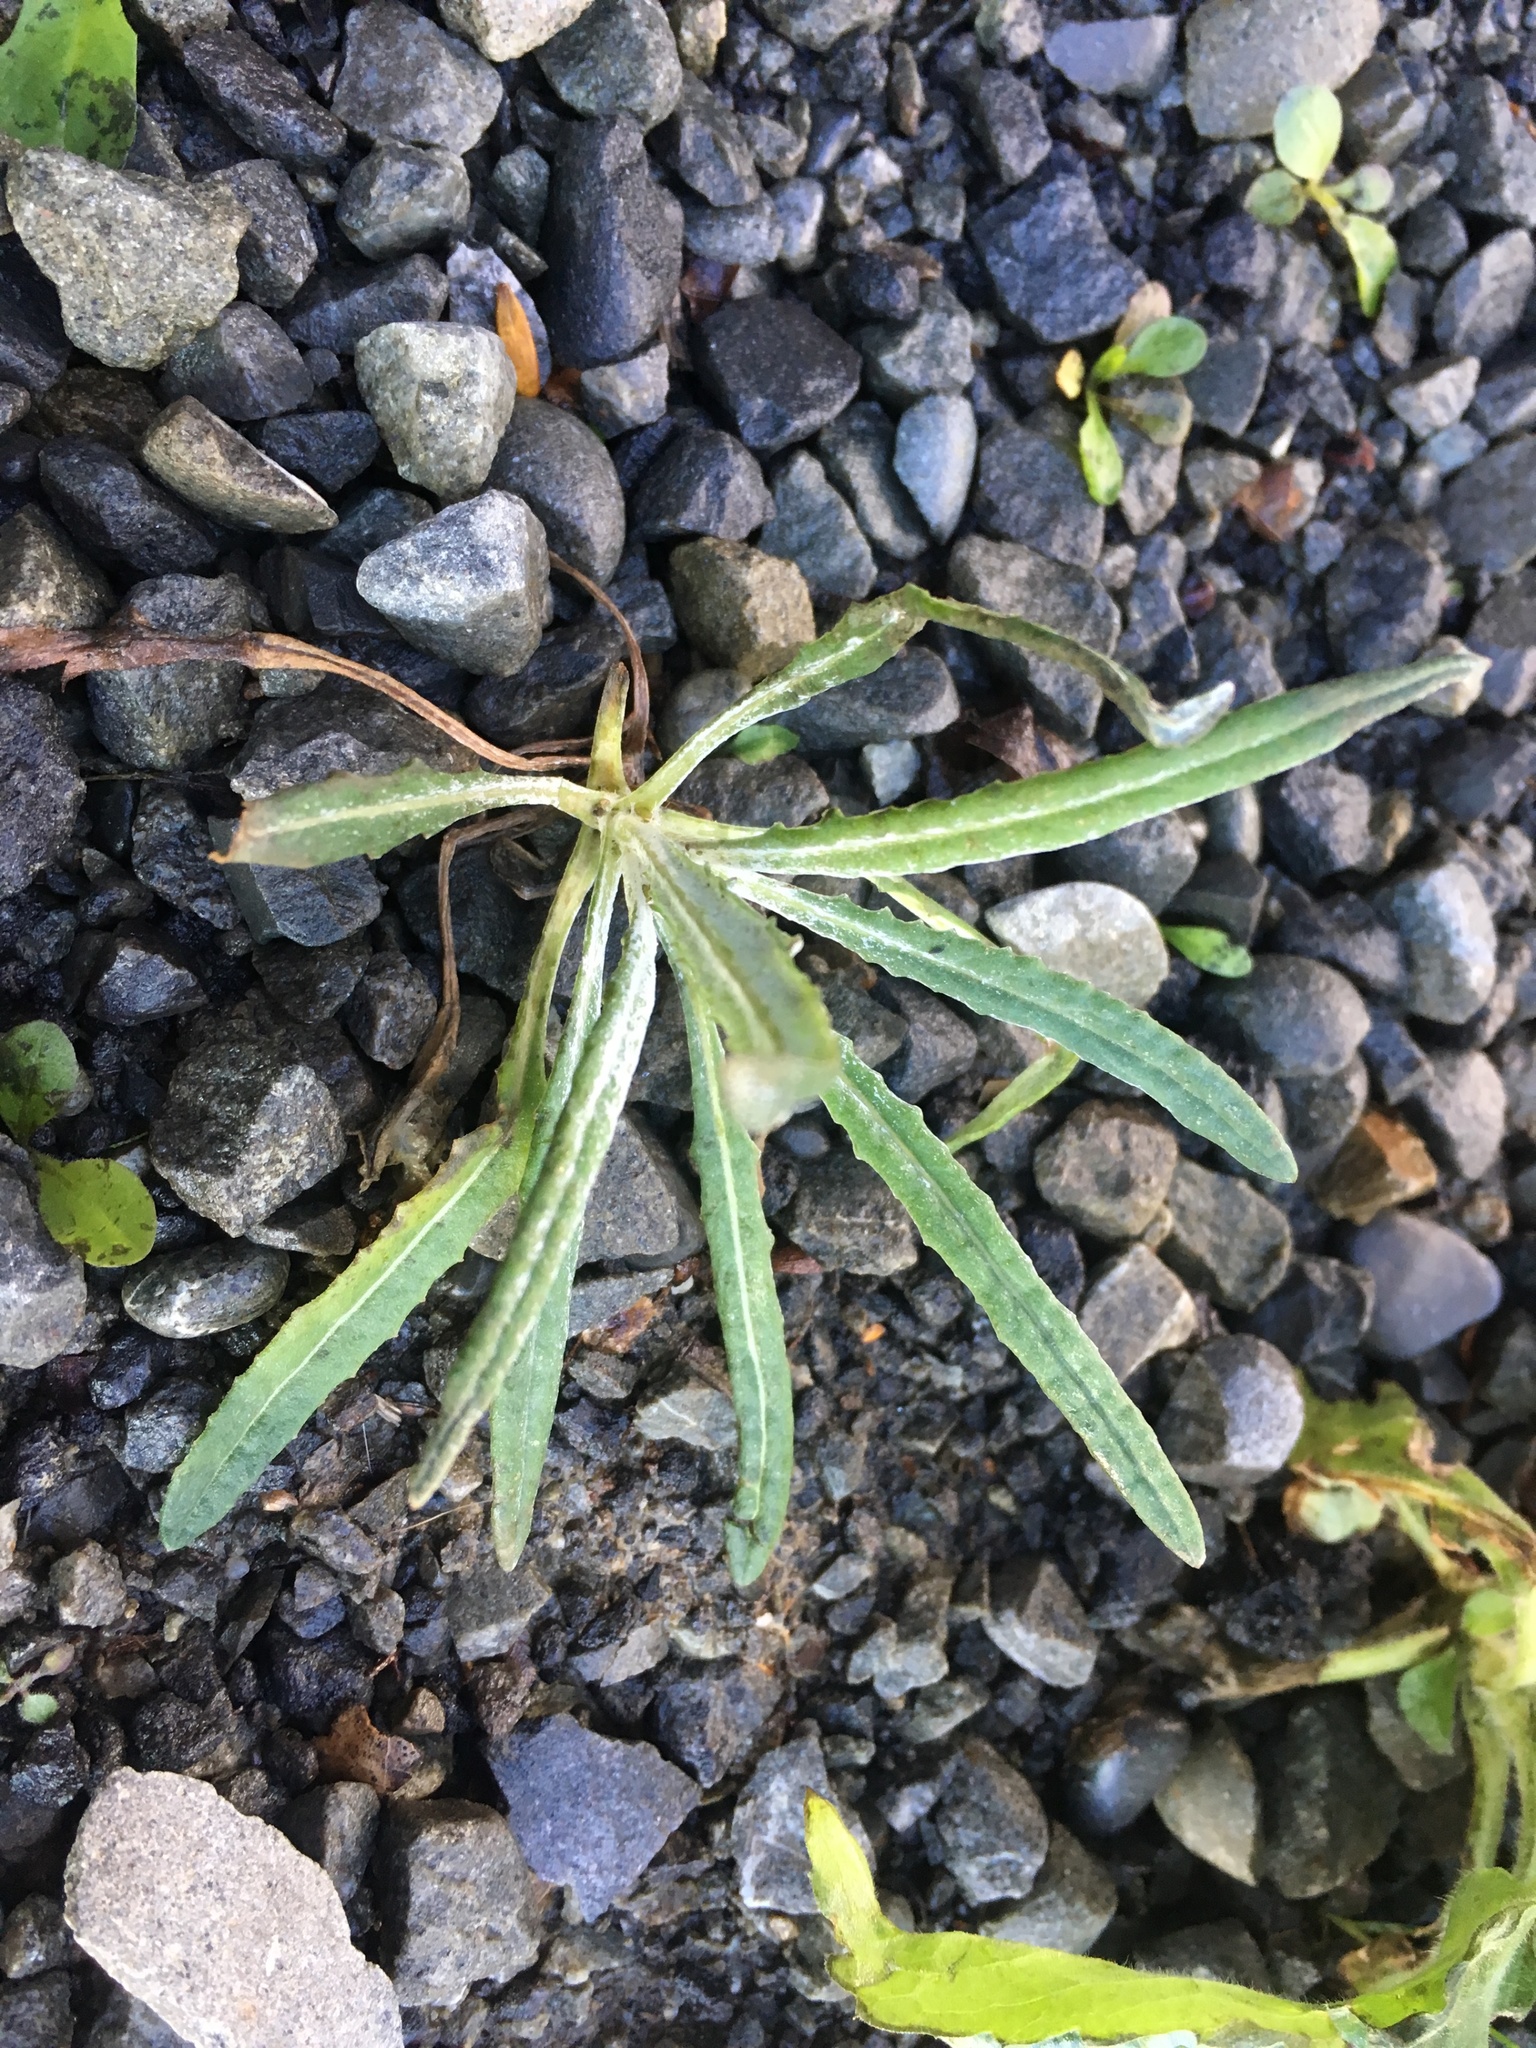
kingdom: Plantae
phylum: Tracheophyta
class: Magnoliopsida
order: Asterales
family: Asteraceae
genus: Senecio
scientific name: Senecio quadridentatus
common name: Cotton fireweed
